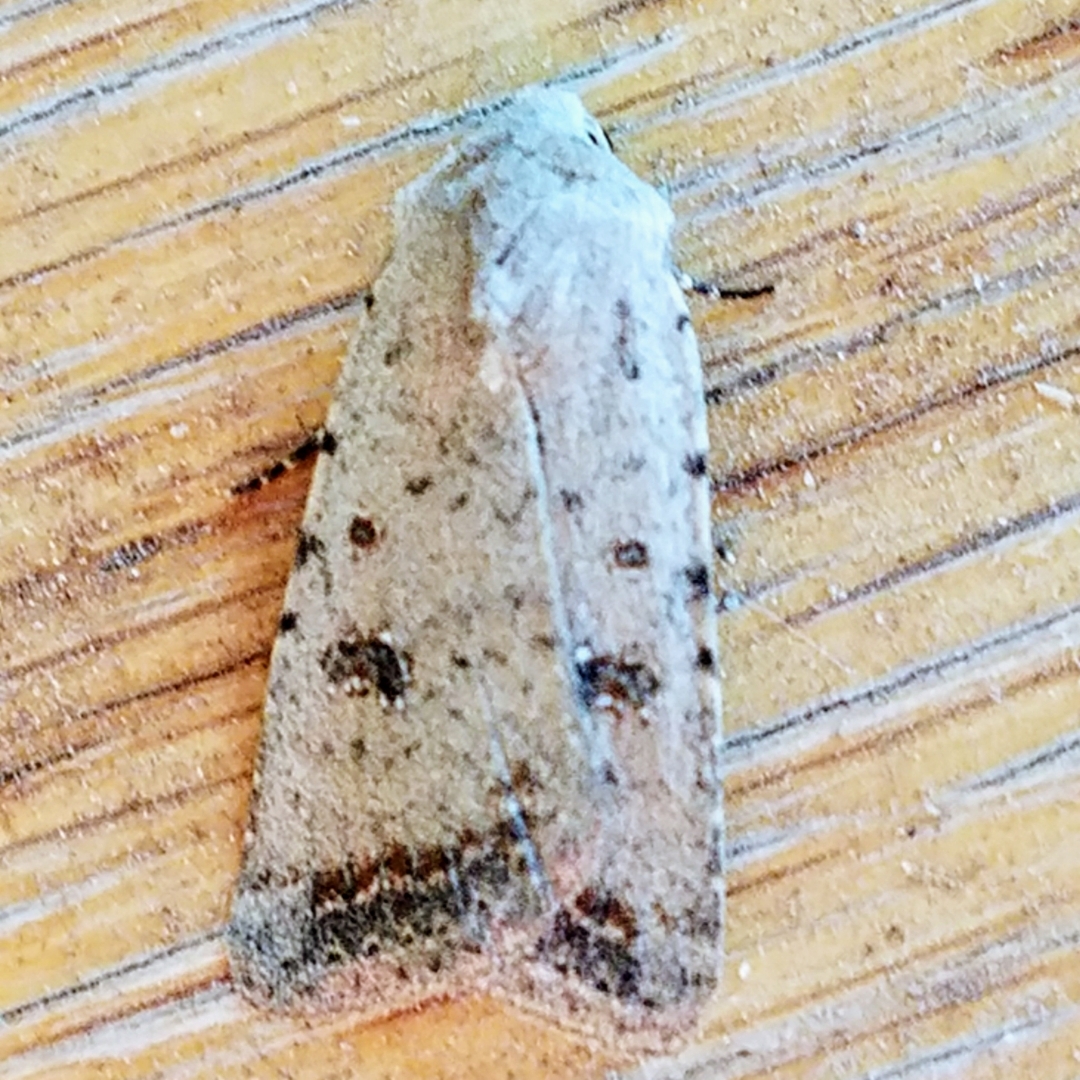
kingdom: Animalia
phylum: Arthropoda
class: Insecta
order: Lepidoptera
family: Noctuidae
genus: Caradrina
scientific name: Caradrina montana
